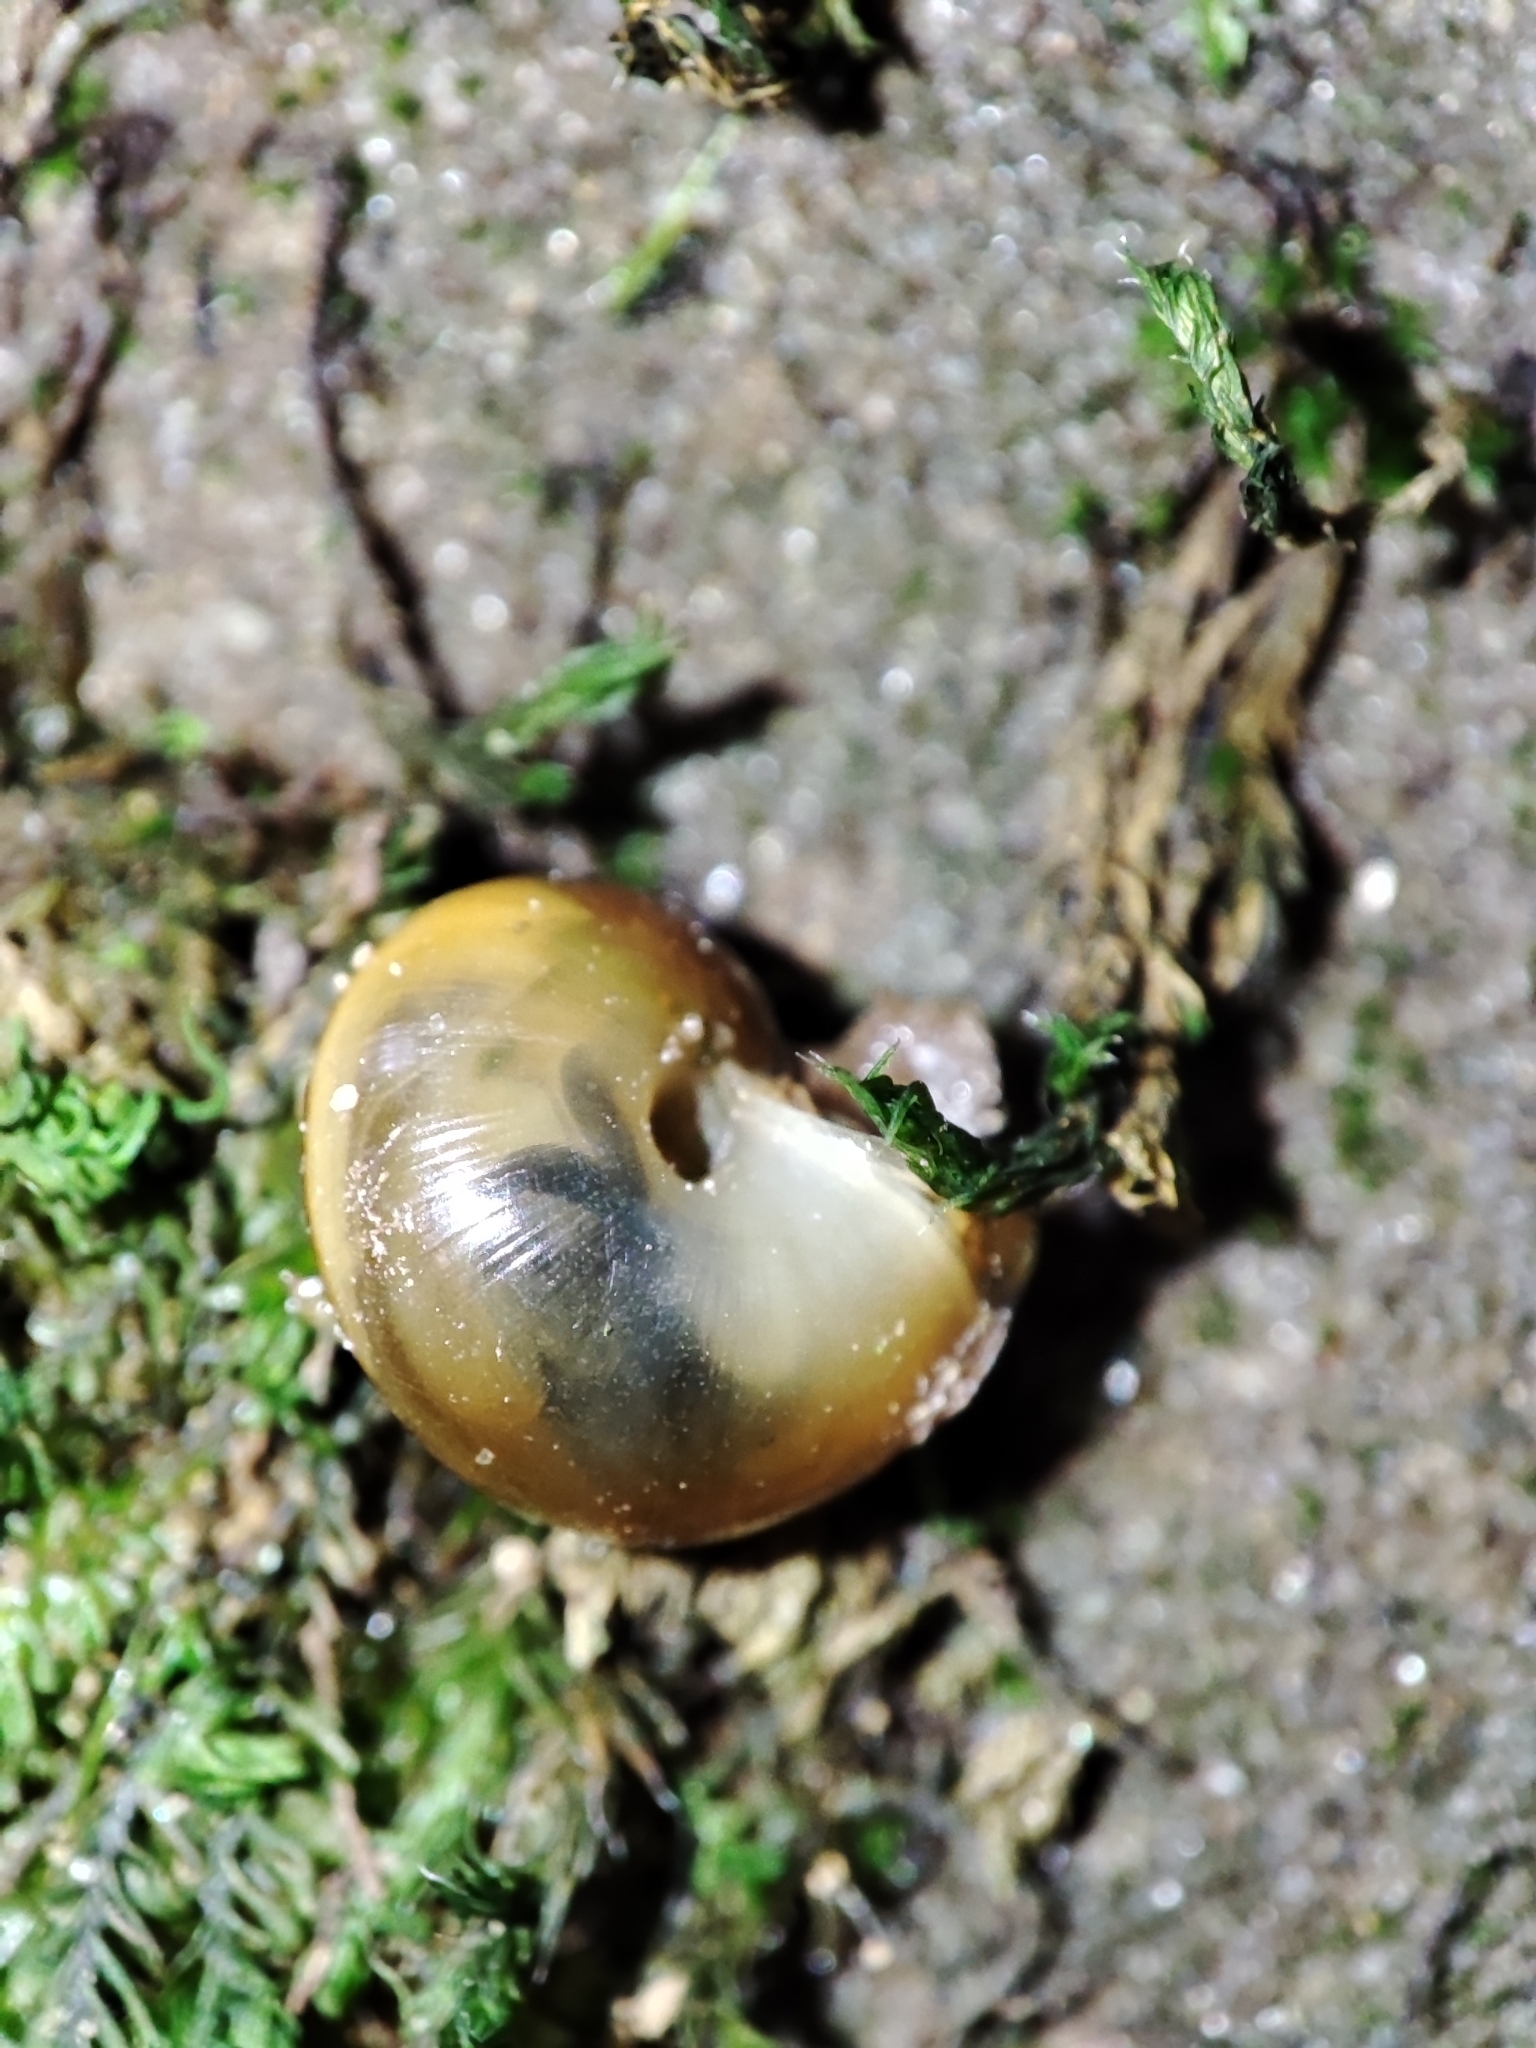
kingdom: Animalia
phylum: Mollusca
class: Gastropoda
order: Stylommatophora
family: Helicidae
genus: Faustina
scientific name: Faustina faustina
